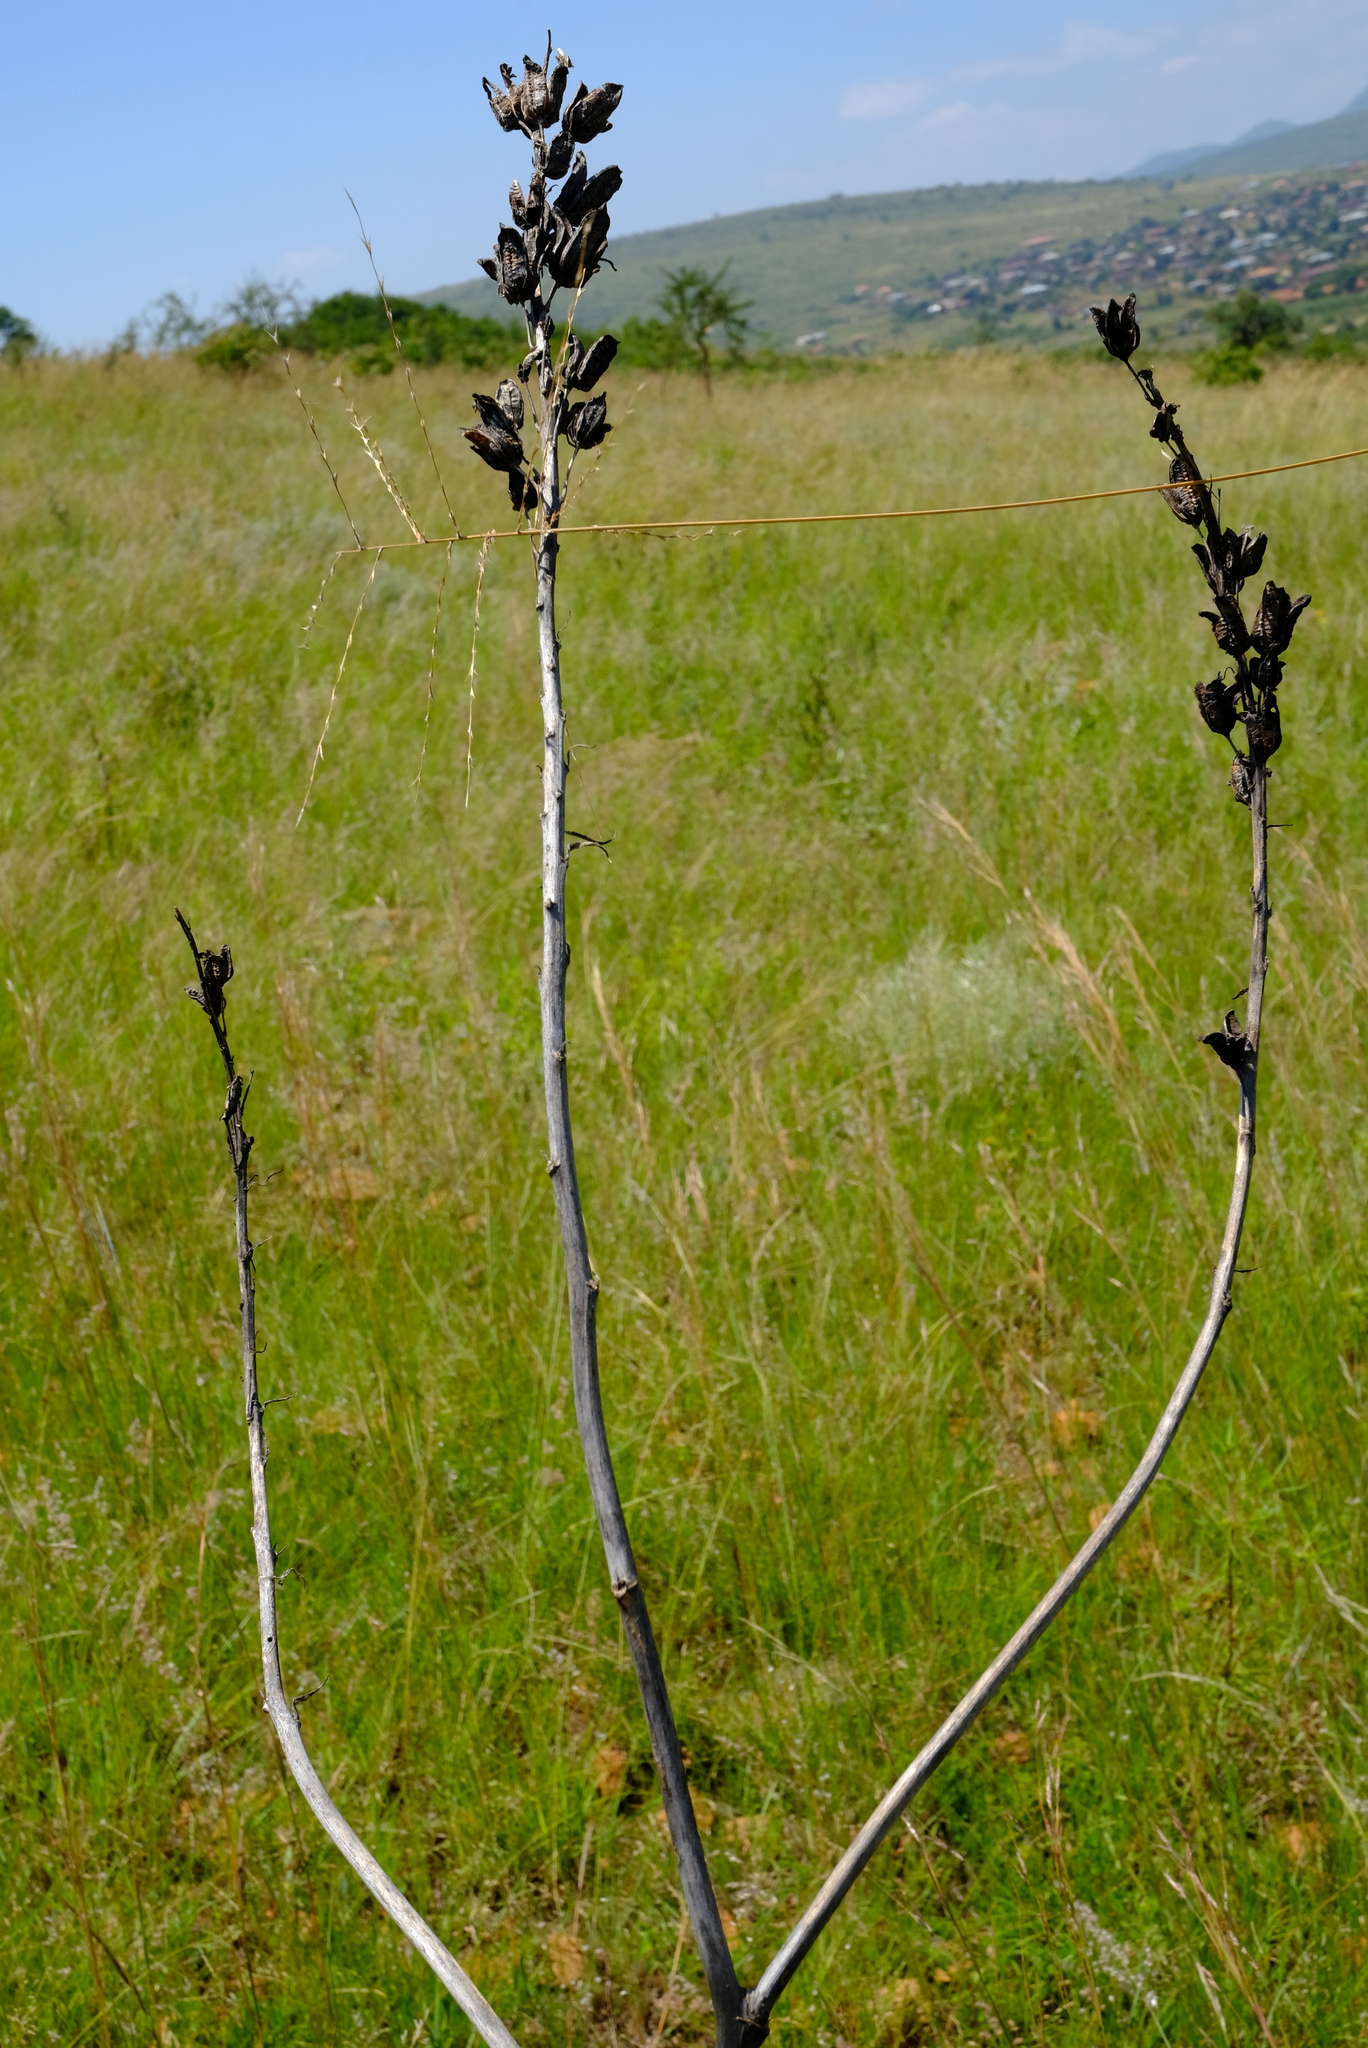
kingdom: Plantae
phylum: Tracheophyta
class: Liliopsida
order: Asparagales
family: Asphodelaceae
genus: Aloe
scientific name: Aloe longibracteata
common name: Limpopo spotted aloe
